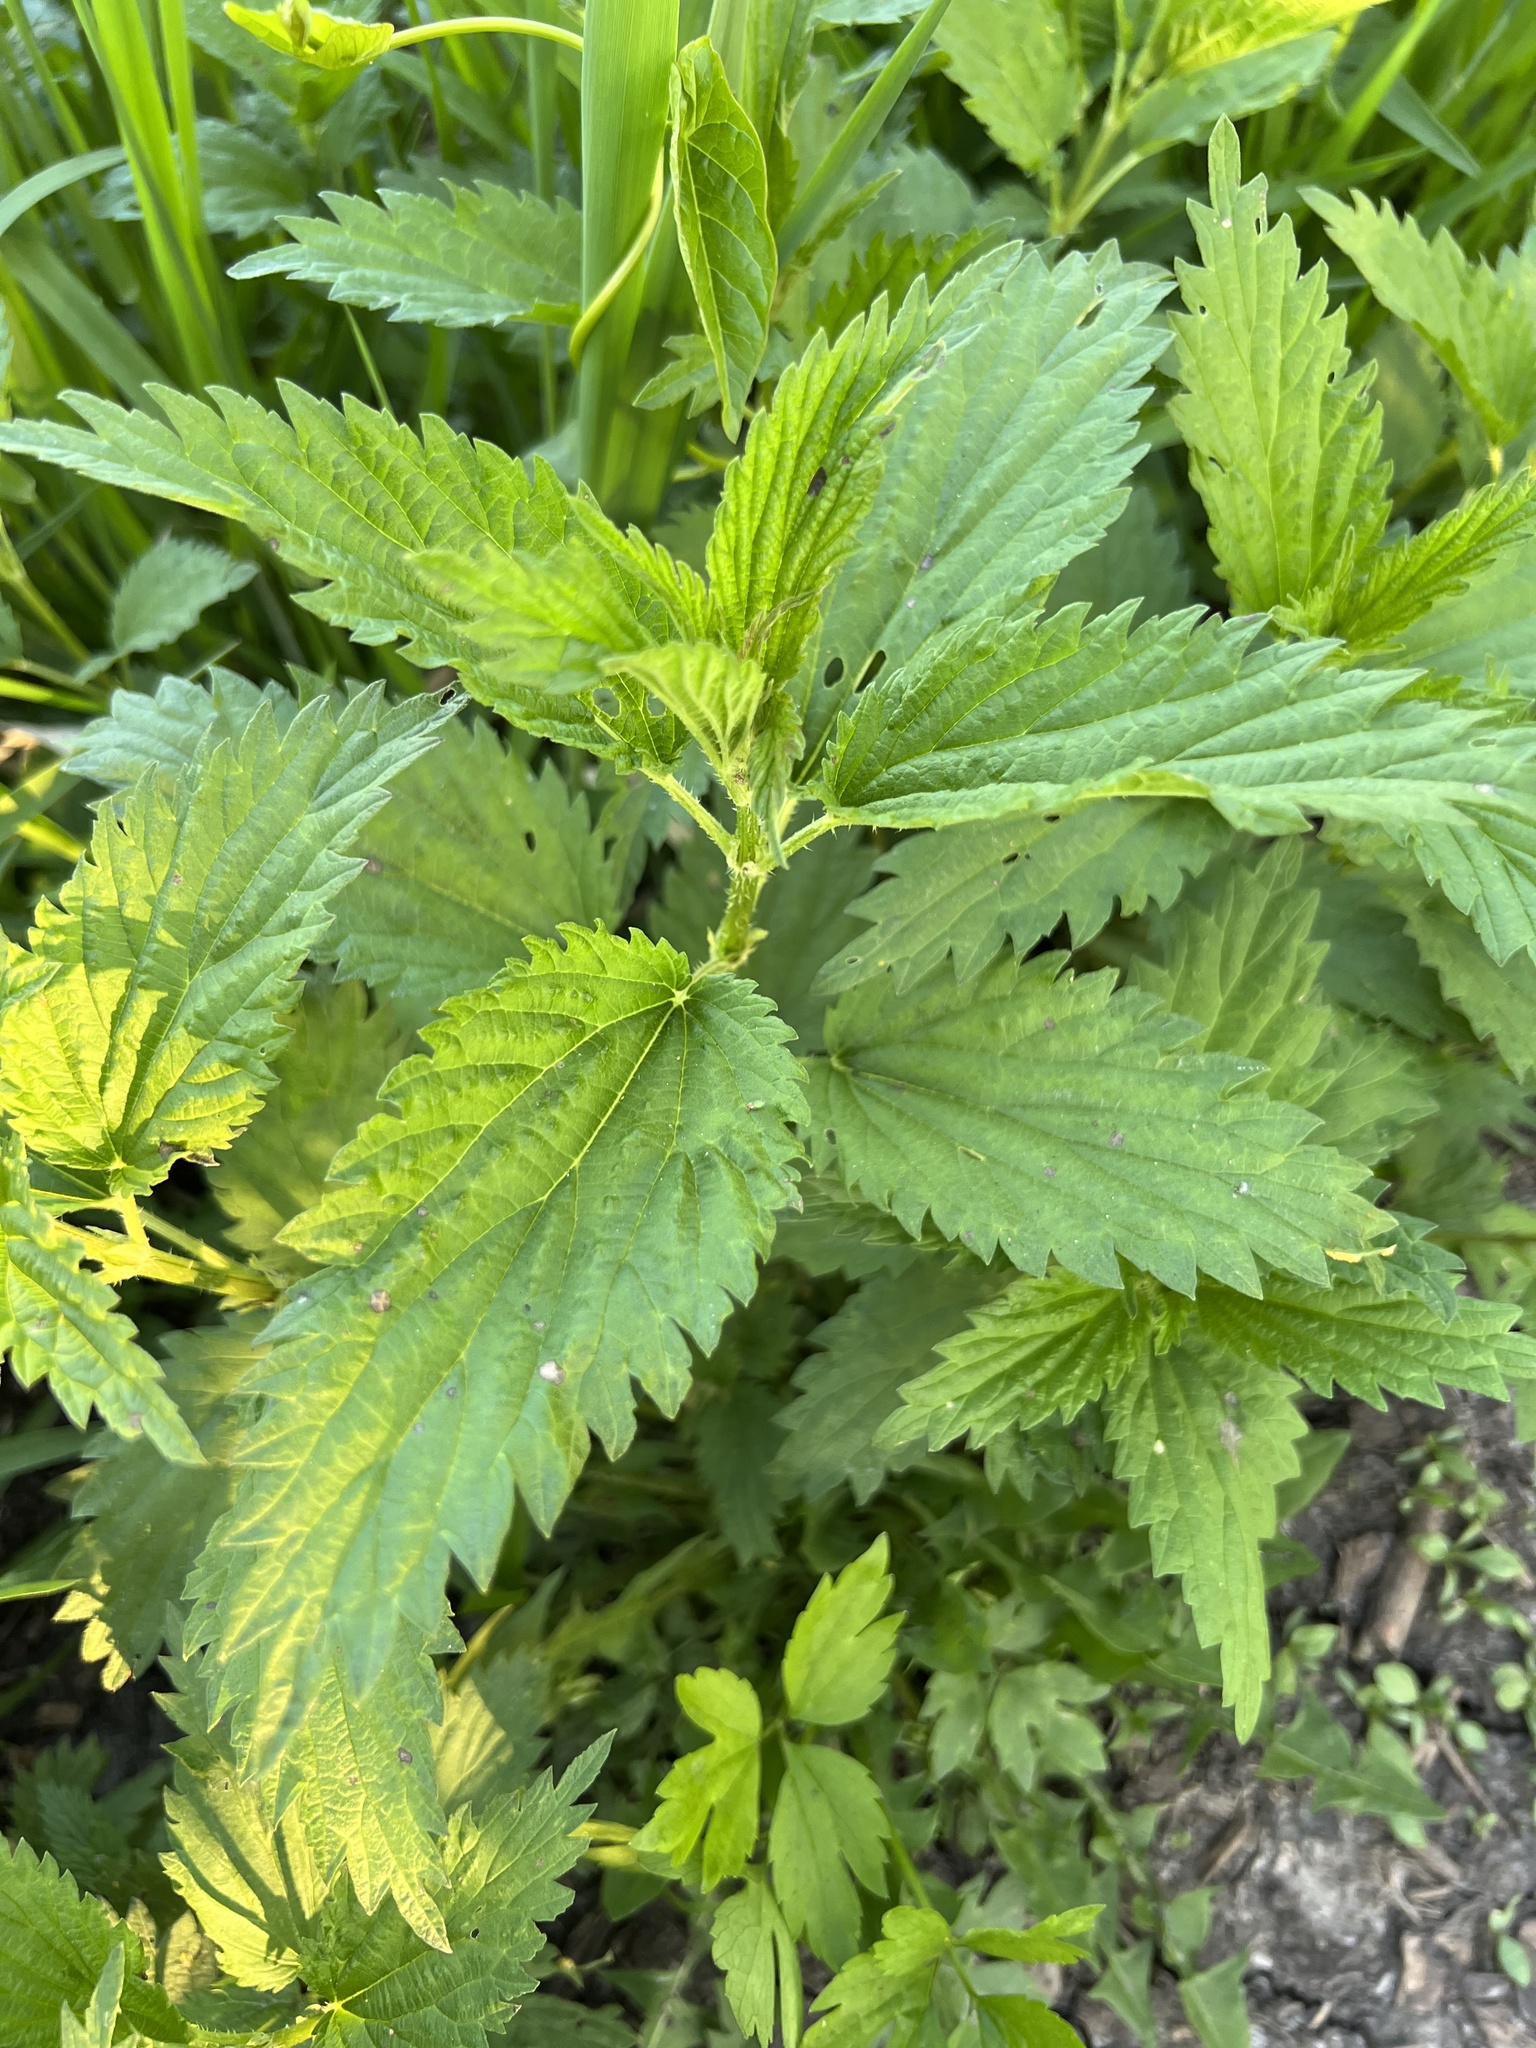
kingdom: Plantae
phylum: Tracheophyta
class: Magnoliopsida
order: Rosales
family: Urticaceae
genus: Urtica
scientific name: Urtica dioica
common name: Common nettle
